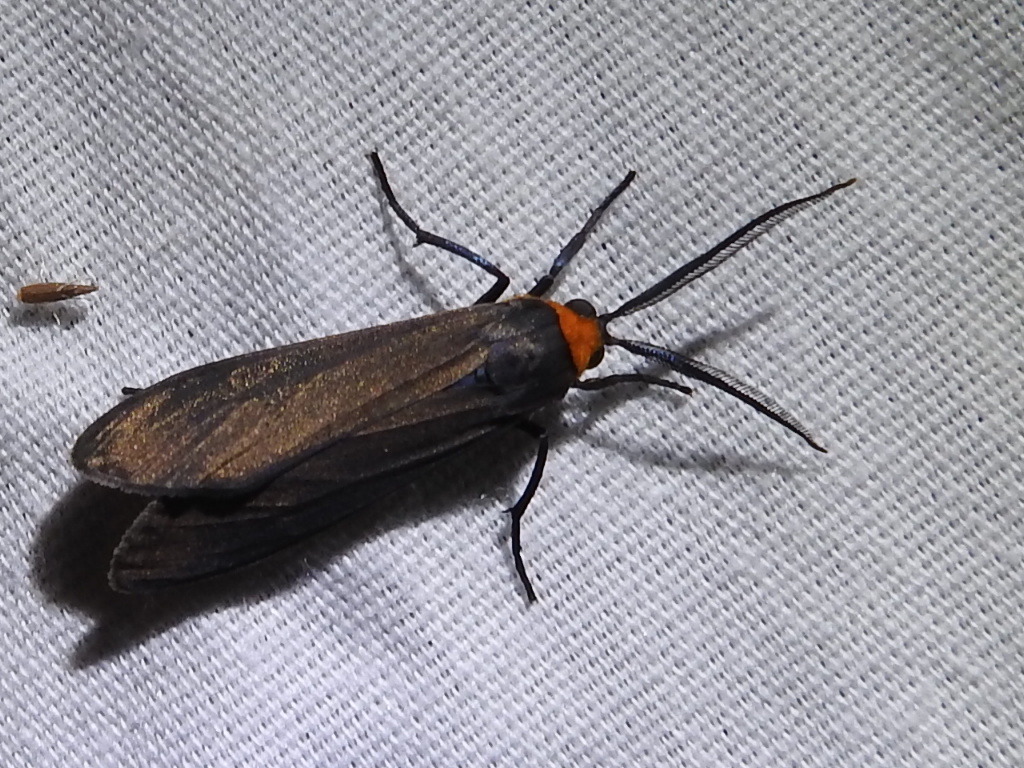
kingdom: Animalia
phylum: Arthropoda
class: Insecta
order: Lepidoptera
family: Erebidae
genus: Cisseps
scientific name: Cisseps fulvicollis
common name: Yellow-collared scape moth
